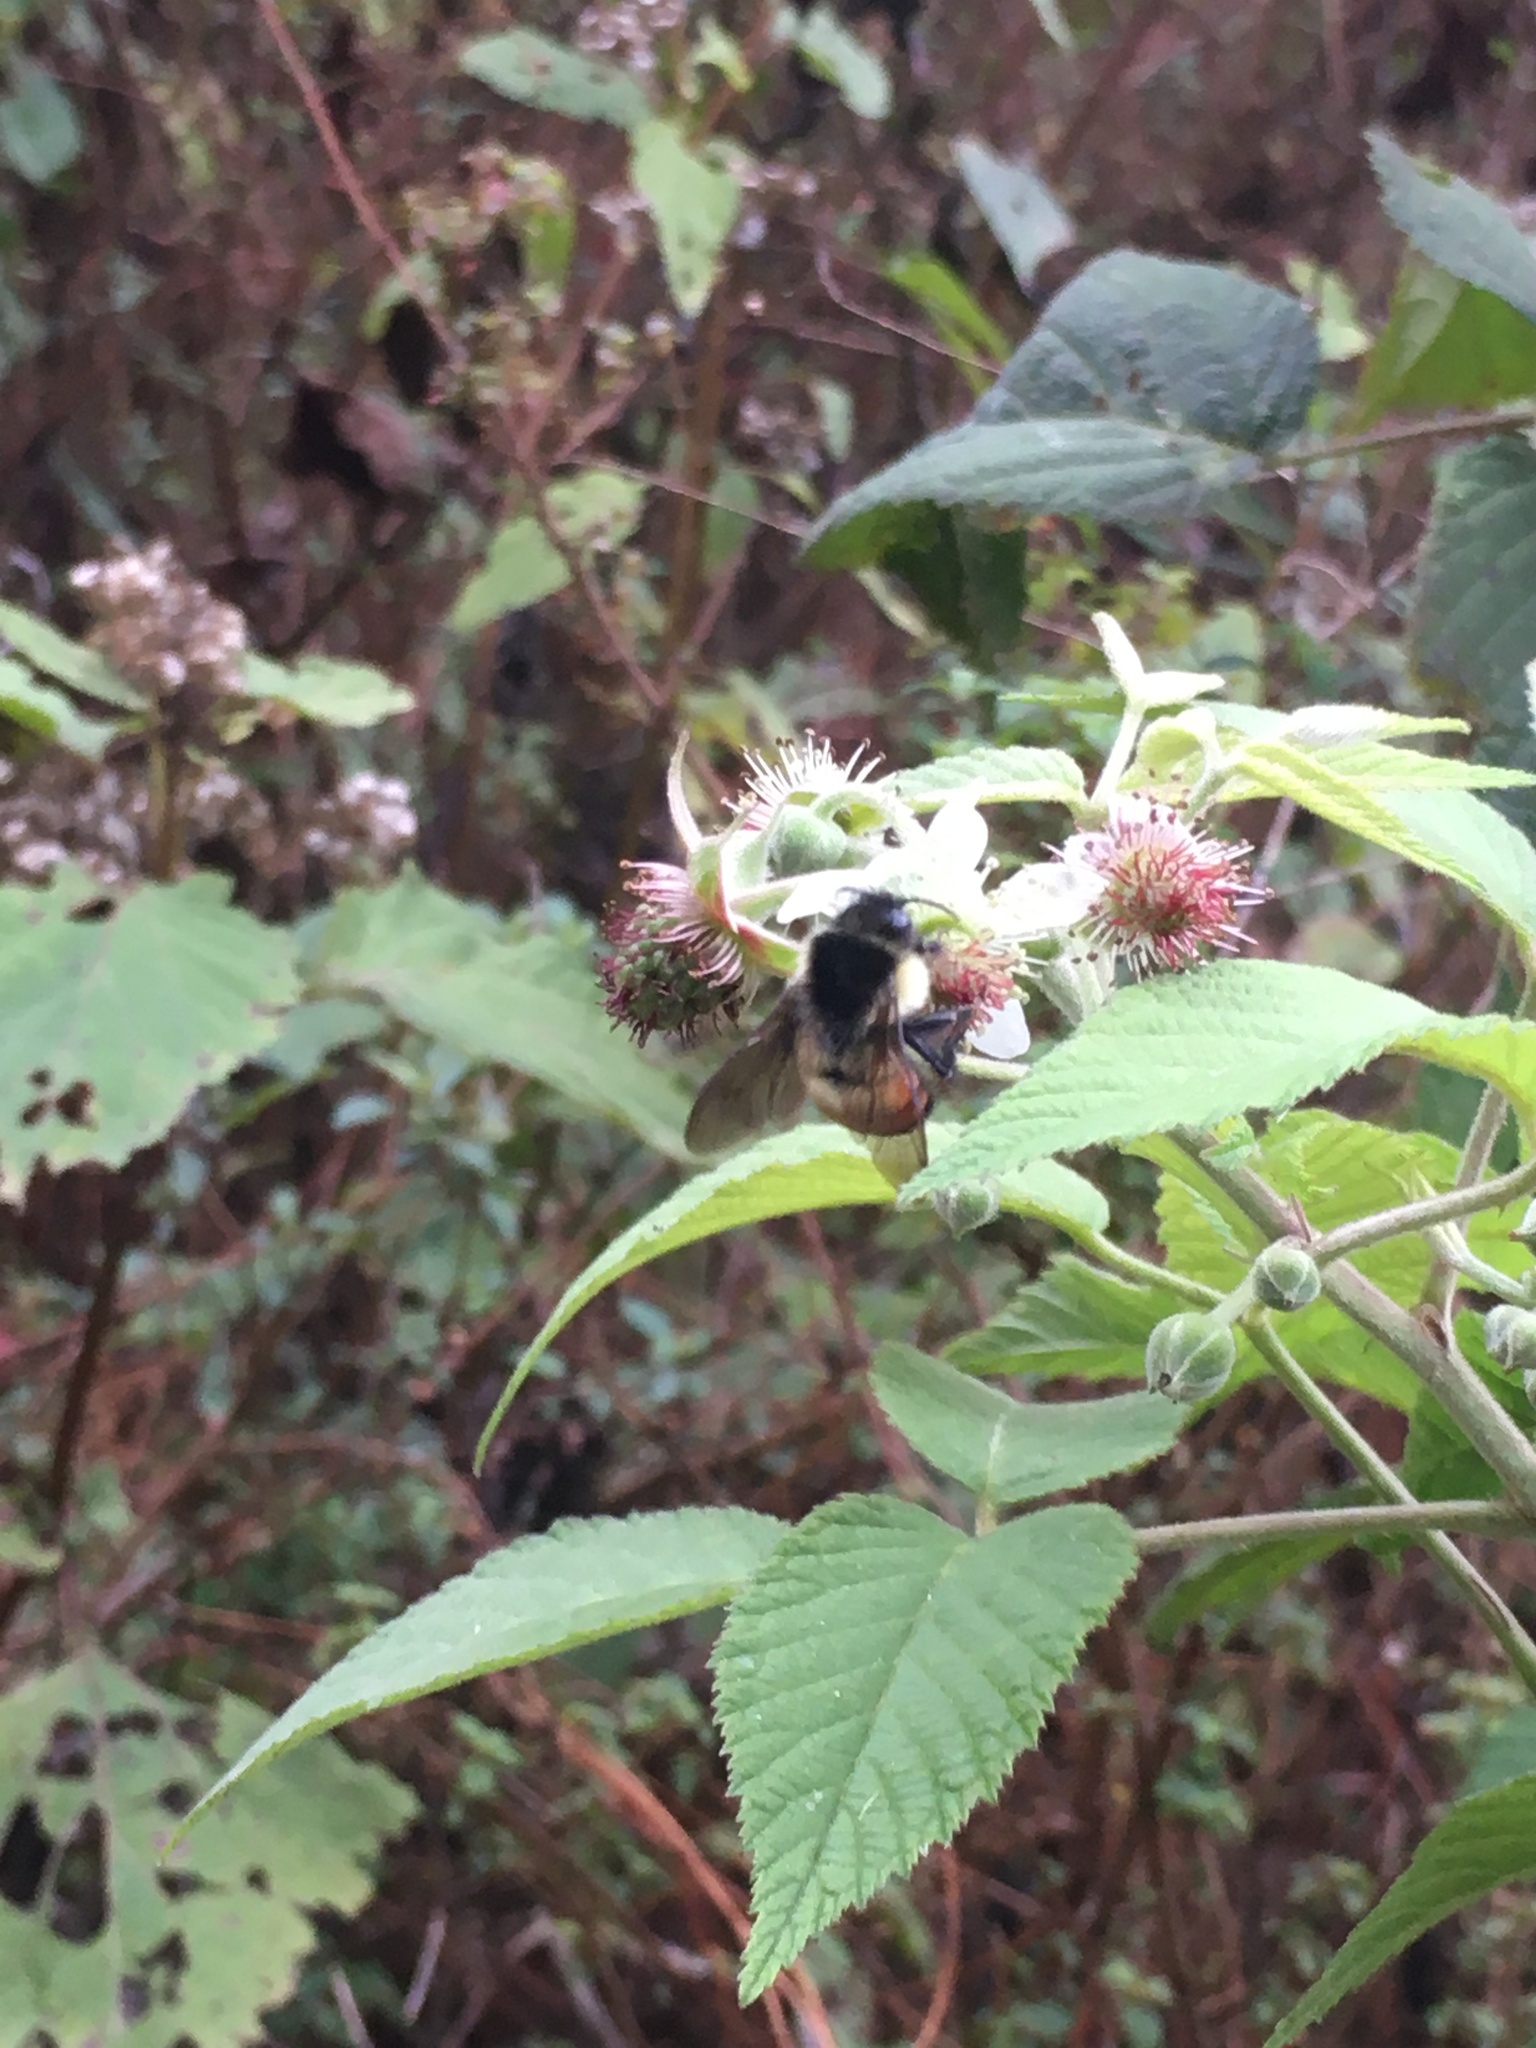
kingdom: Animalia
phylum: Arthropoda
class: Insecta
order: Hymenoptera
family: Apidae
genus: Bombus
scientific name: Bombus ephippiatus
